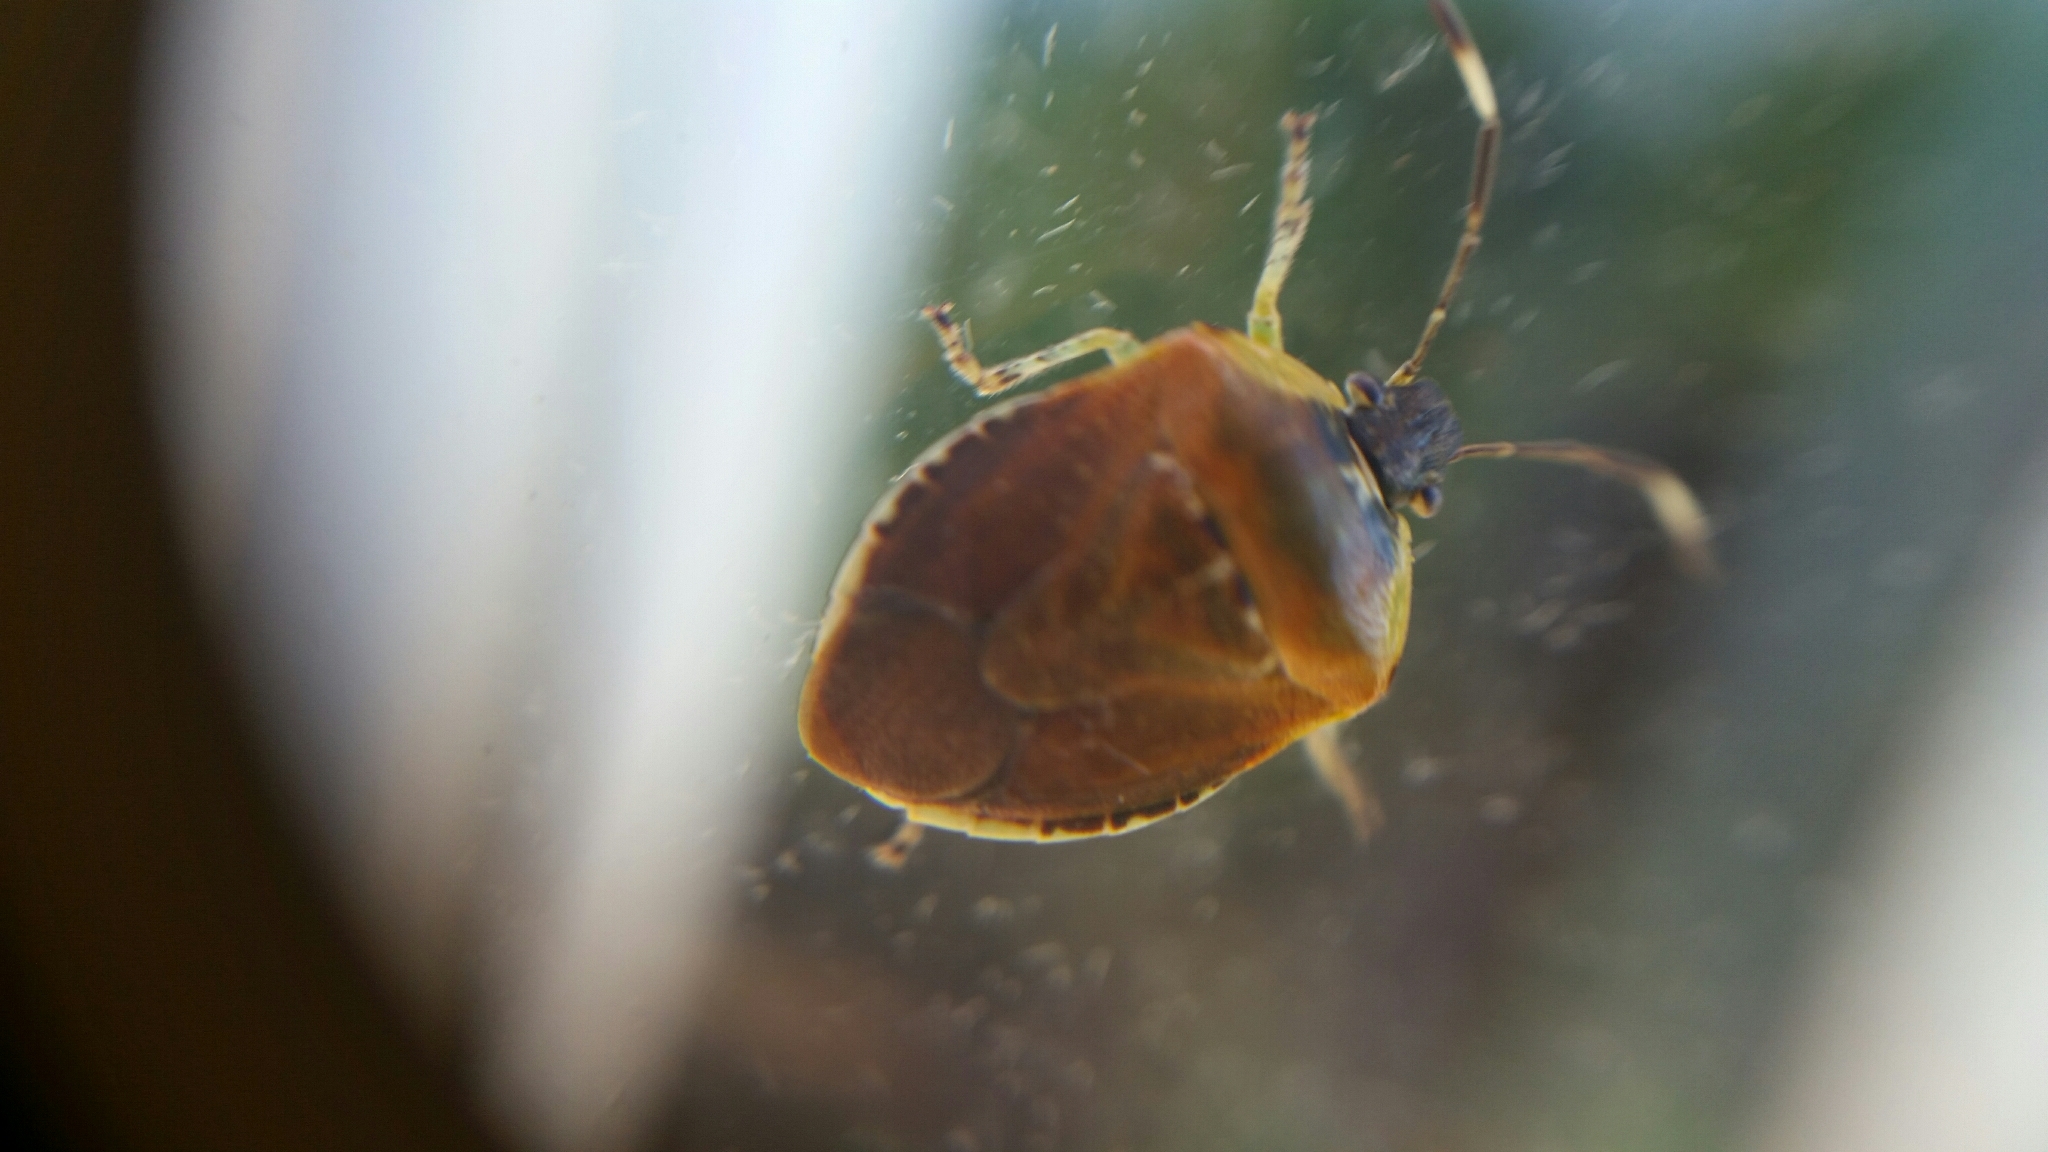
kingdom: Animalia
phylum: Arthropoda
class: Insecta
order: Hemiptera
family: Pentatomidae
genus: Monteithiella
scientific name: Monteithiella
